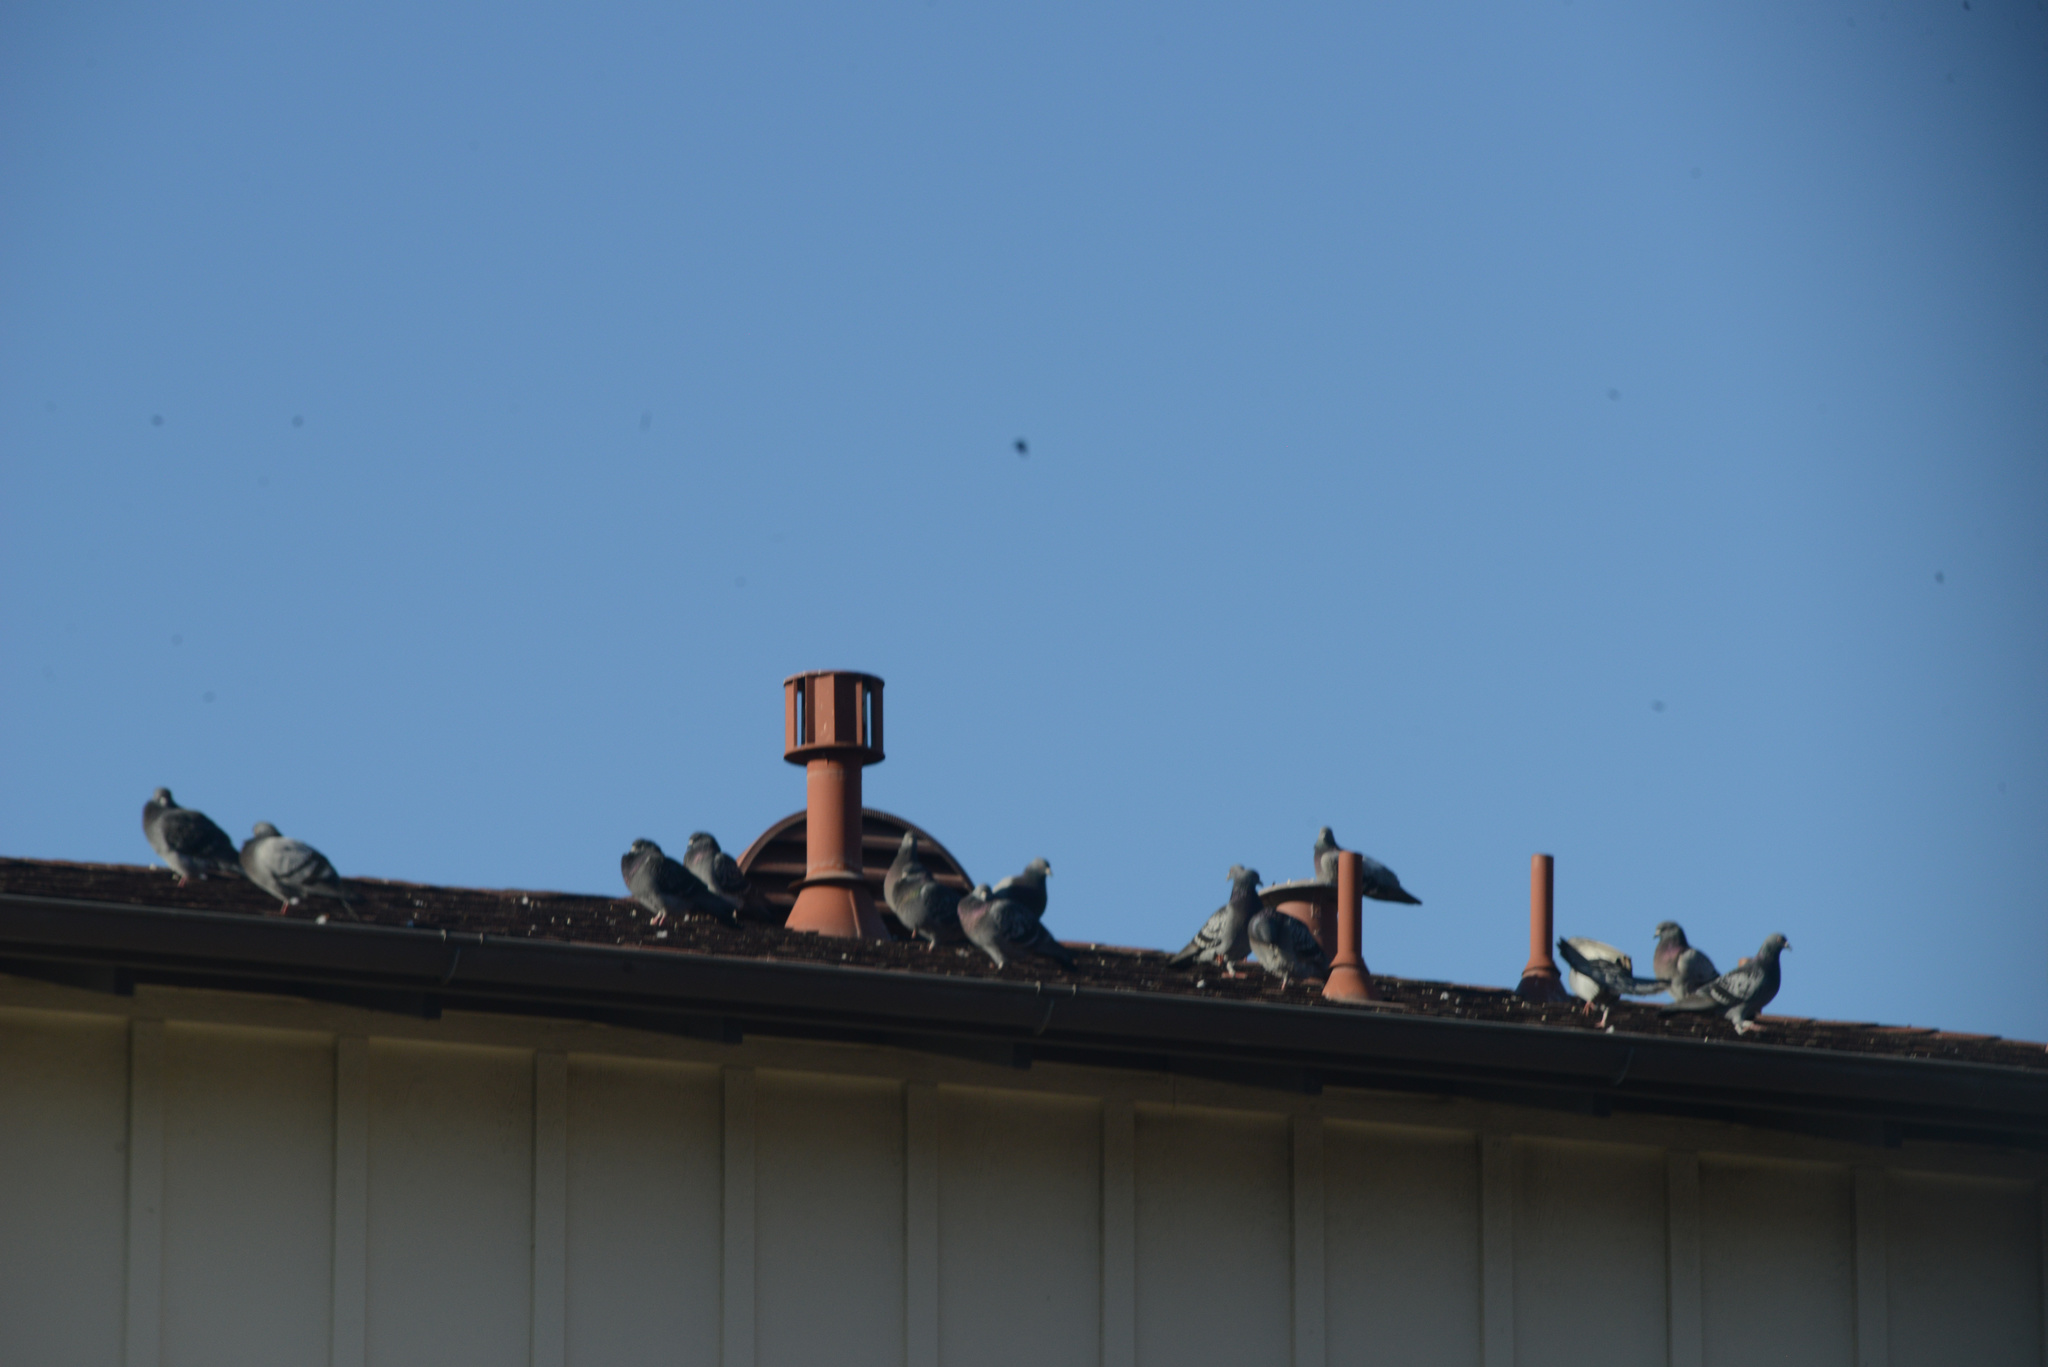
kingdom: Animalia
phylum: Chordata
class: Aves
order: Columbiformes
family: Columbidae
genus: Columba
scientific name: Columba livia
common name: Rock pigeon
